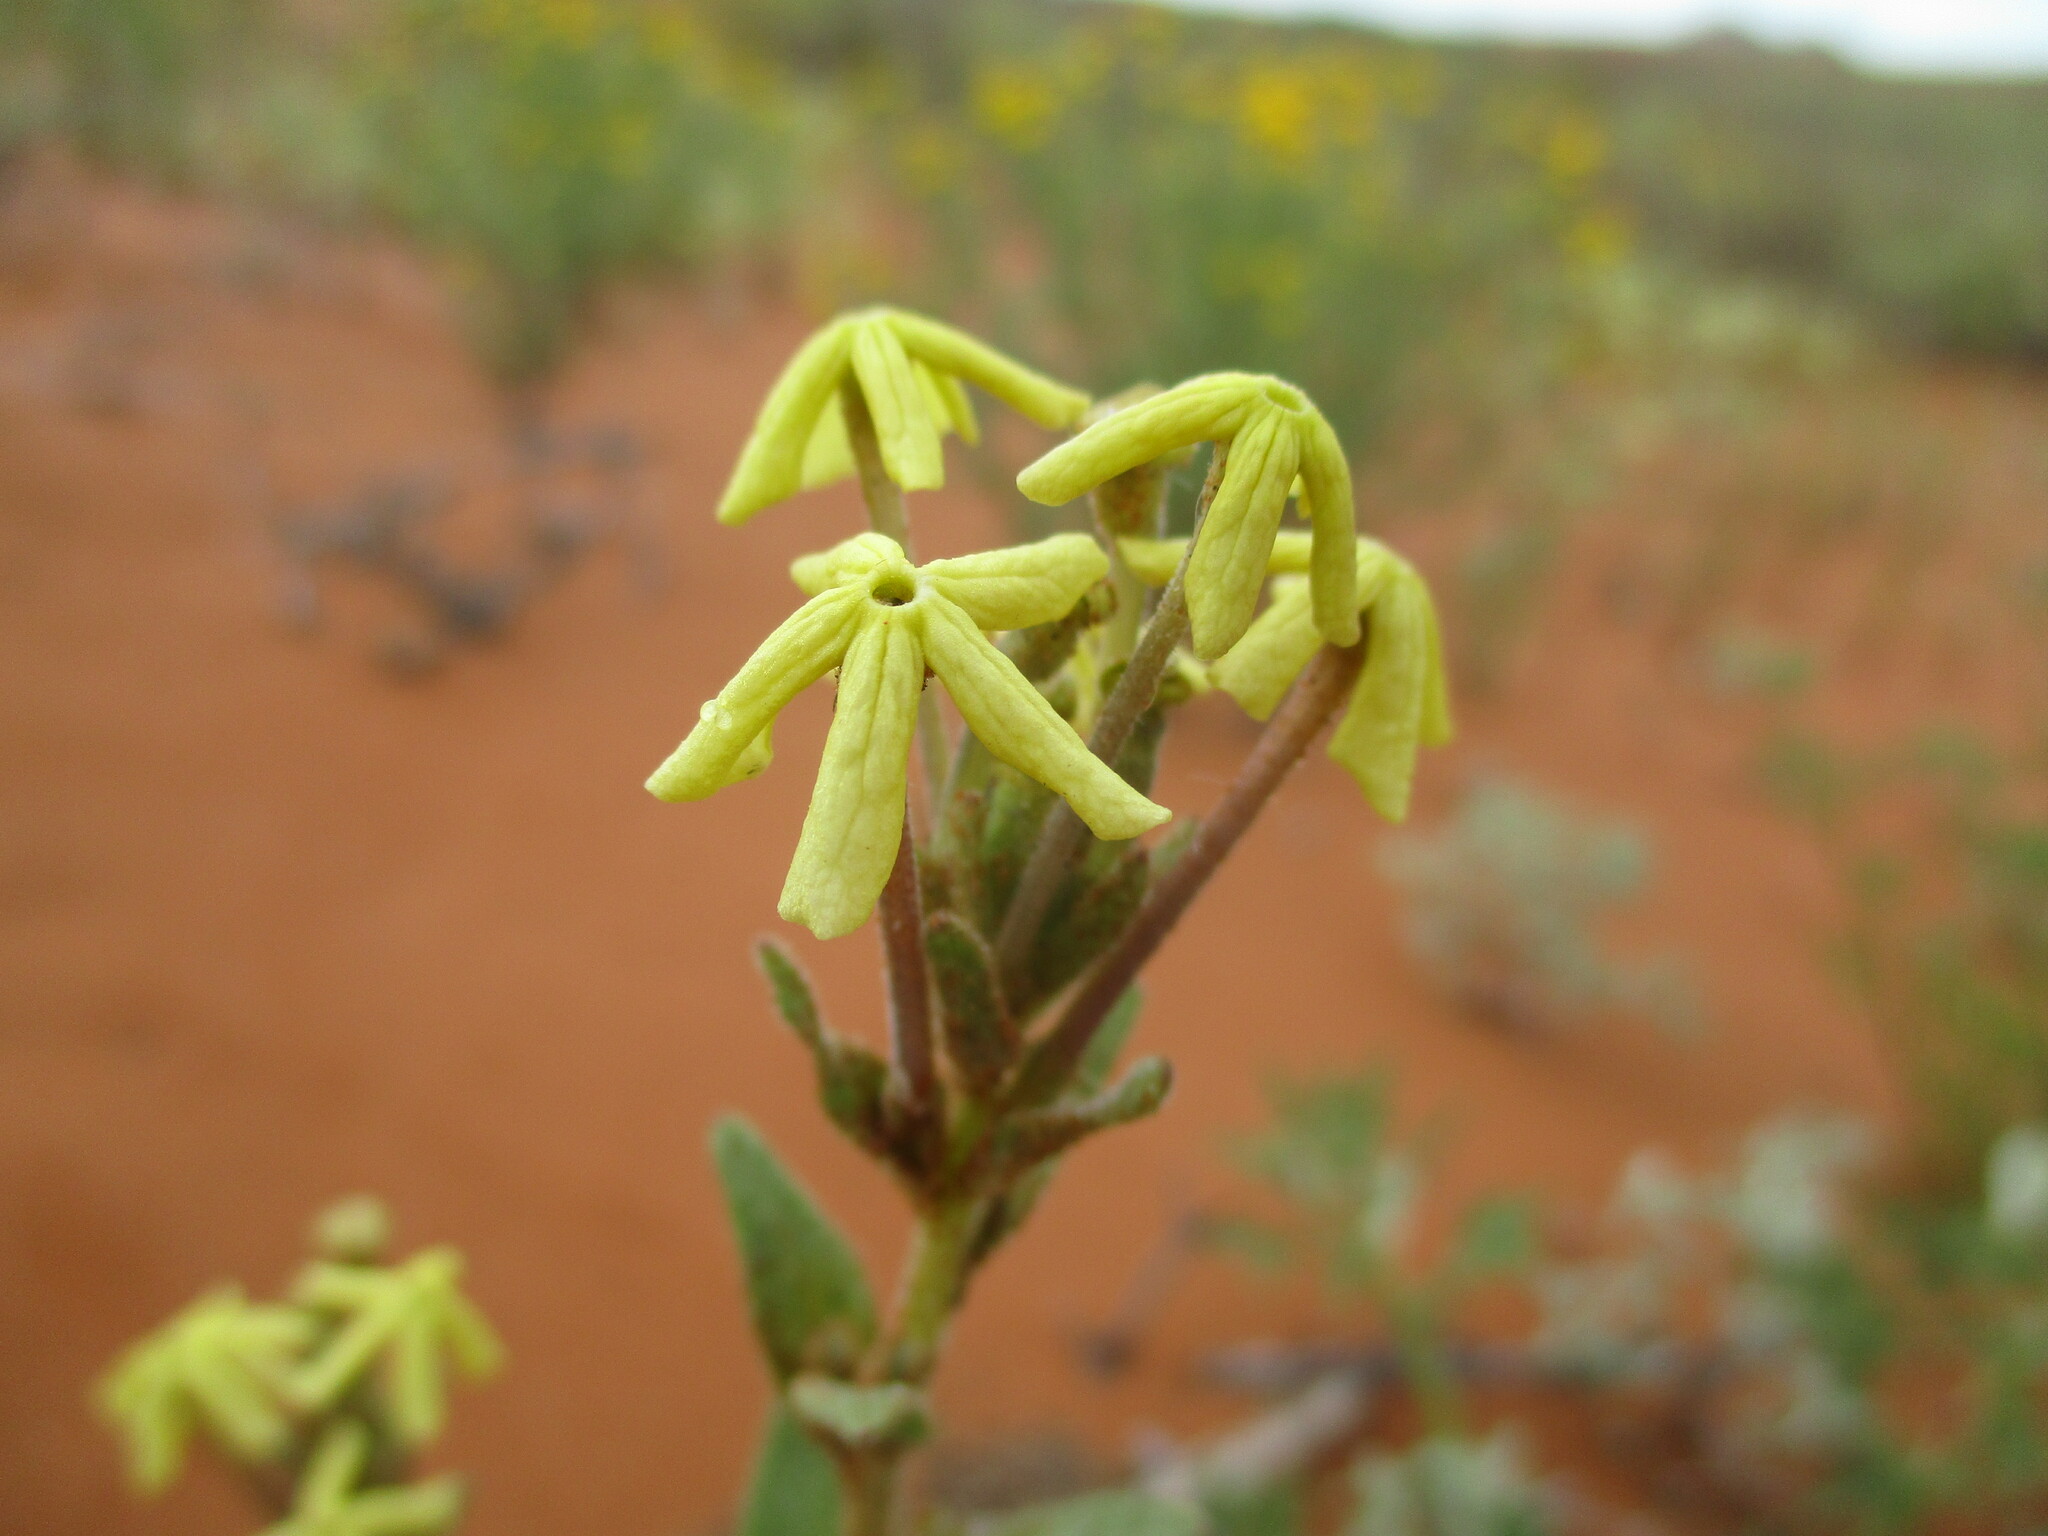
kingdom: Plantae
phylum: Tracheophyta
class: Magnoliopsida
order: Lamiales
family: Scrophulariaceae
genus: Lyperia
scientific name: Lyperia tristis
